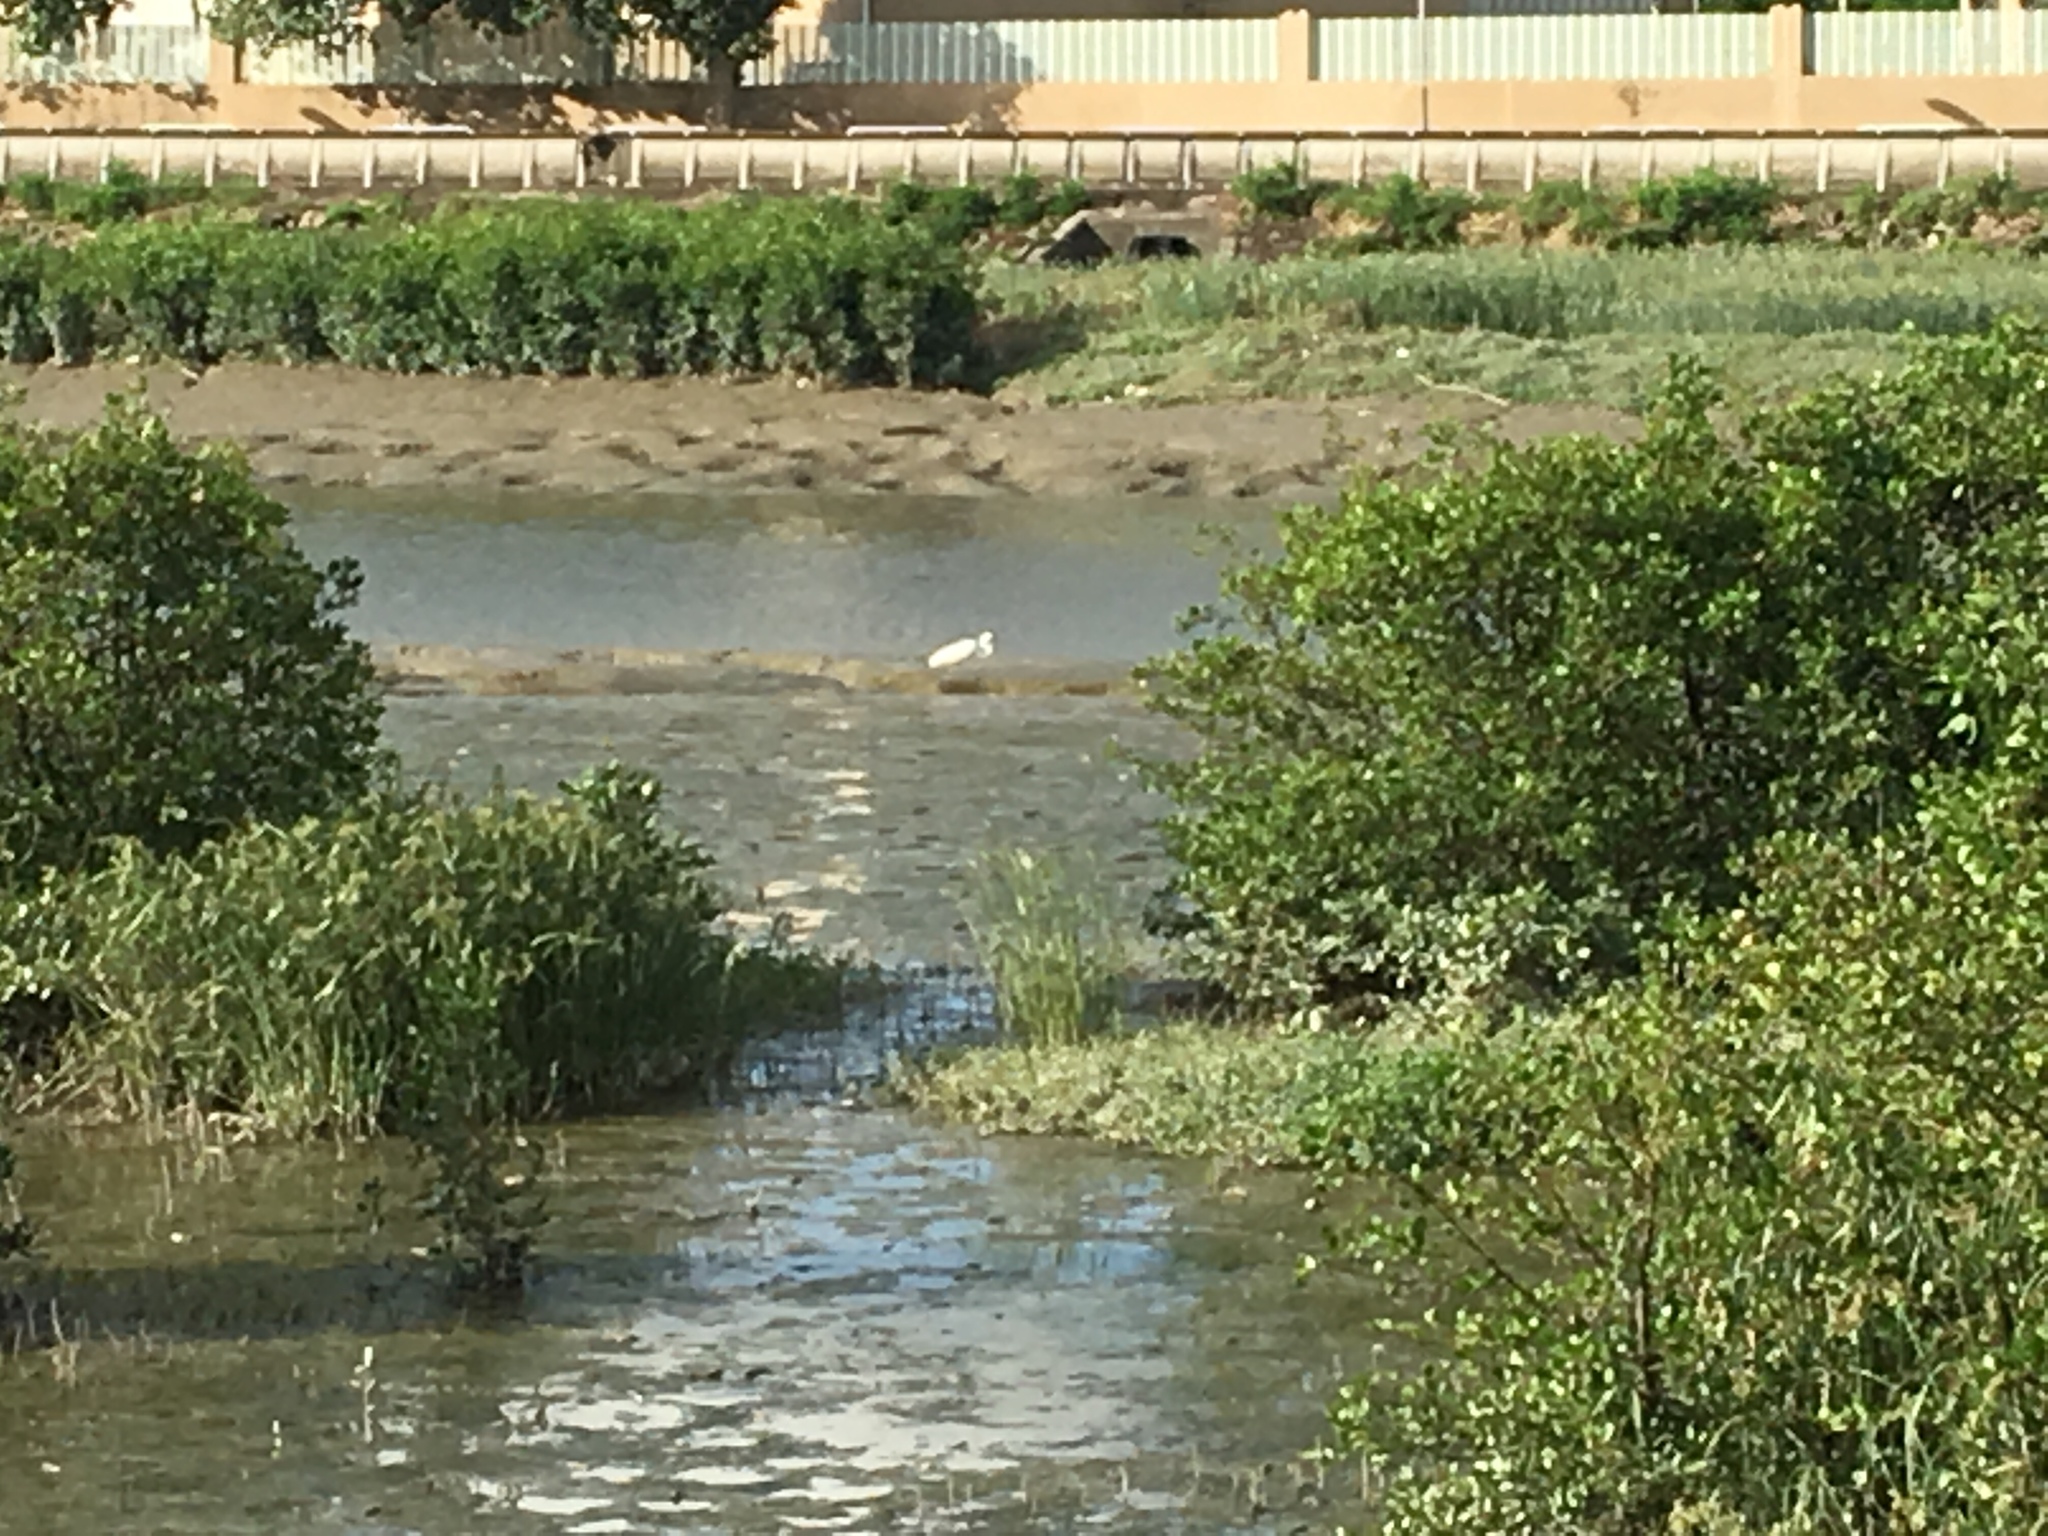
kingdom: Animalia
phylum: Chordata
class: Aves
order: Pelecaniformes
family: Ardeidae
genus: Ardea
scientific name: Ardea alba
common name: Great egret
